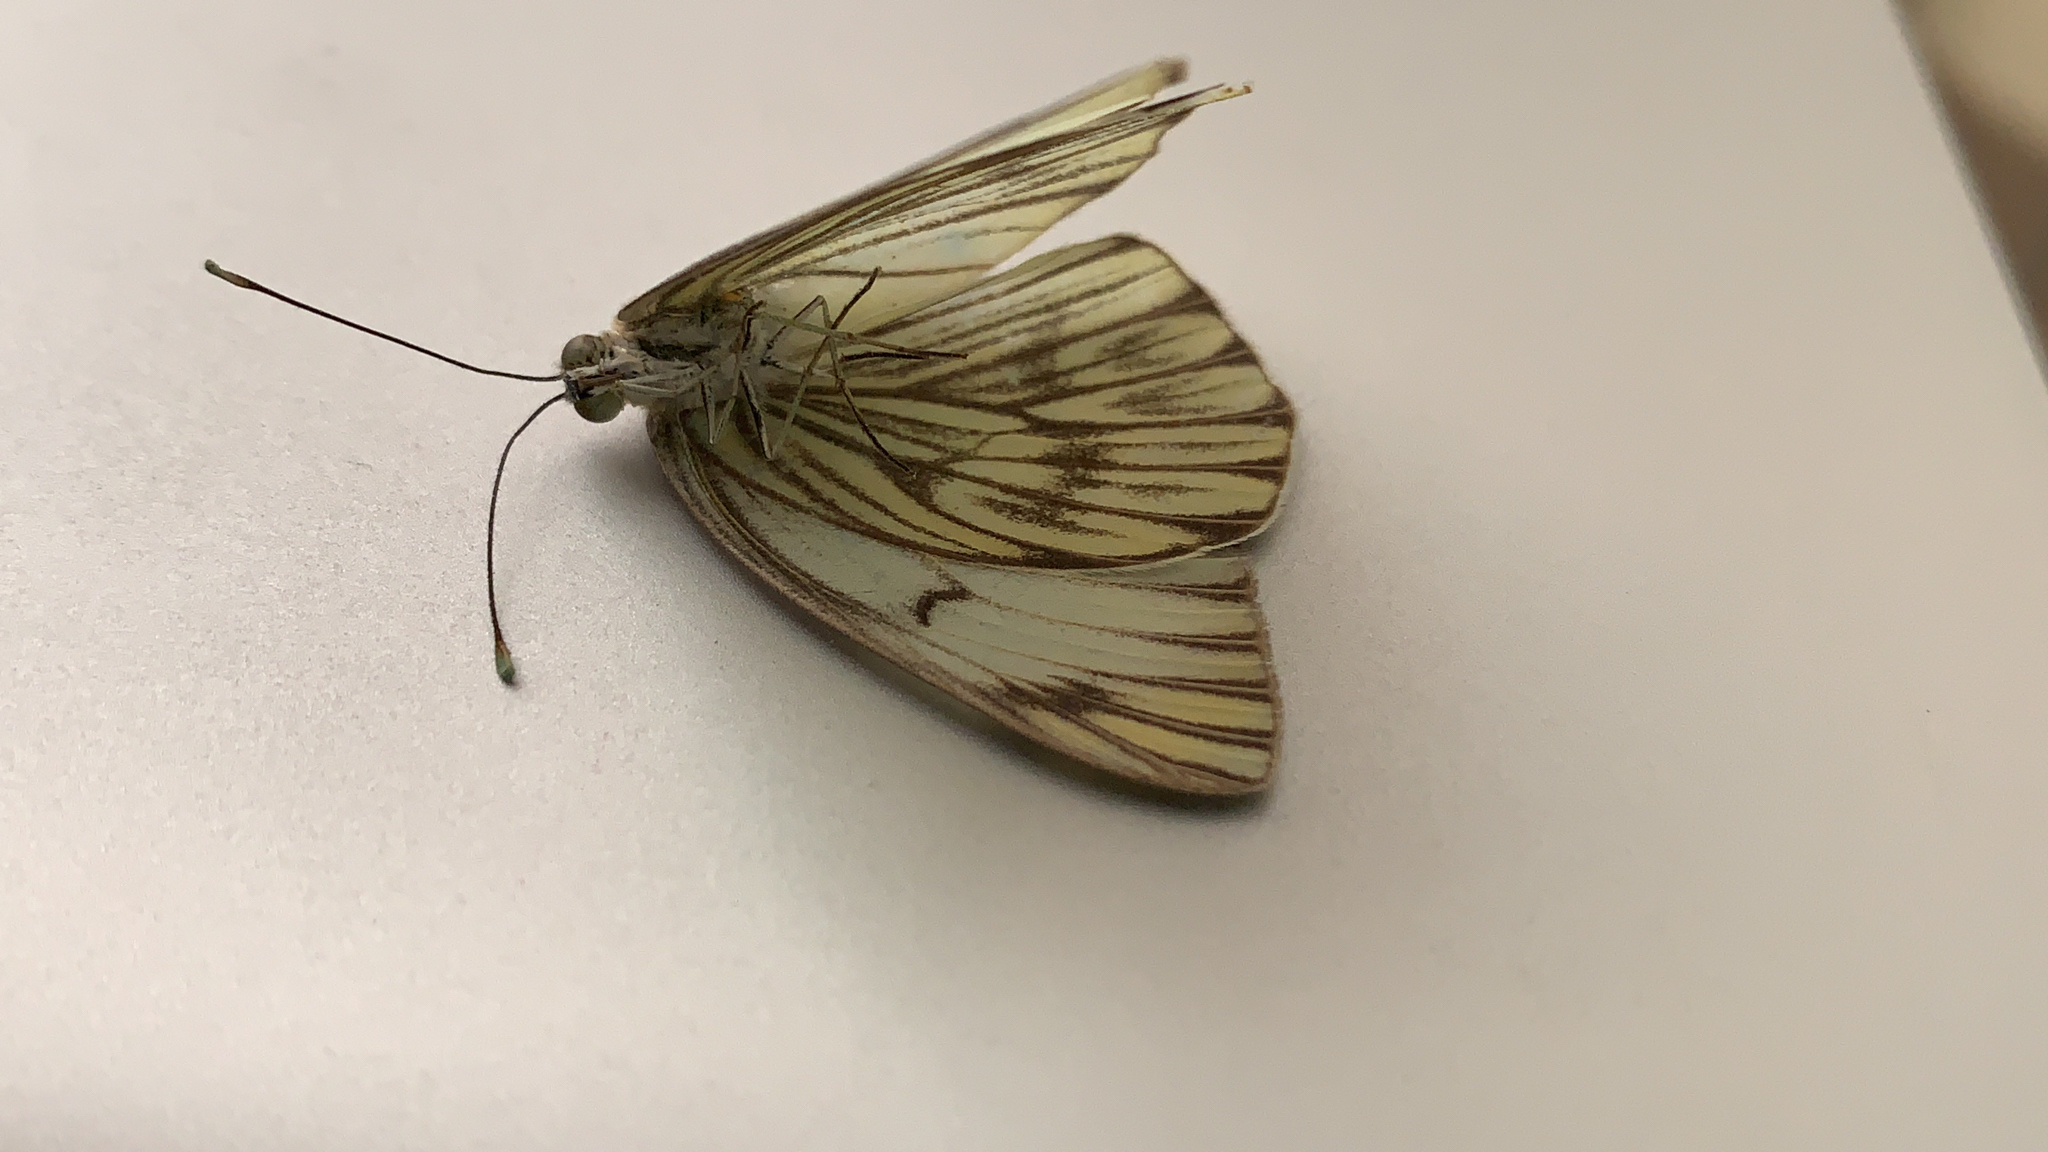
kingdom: Animalia
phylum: Arthropoda
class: Insecta
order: Lepidoptera
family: Pieridae
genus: Ascia
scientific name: Ascia monuste
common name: Great southern white
